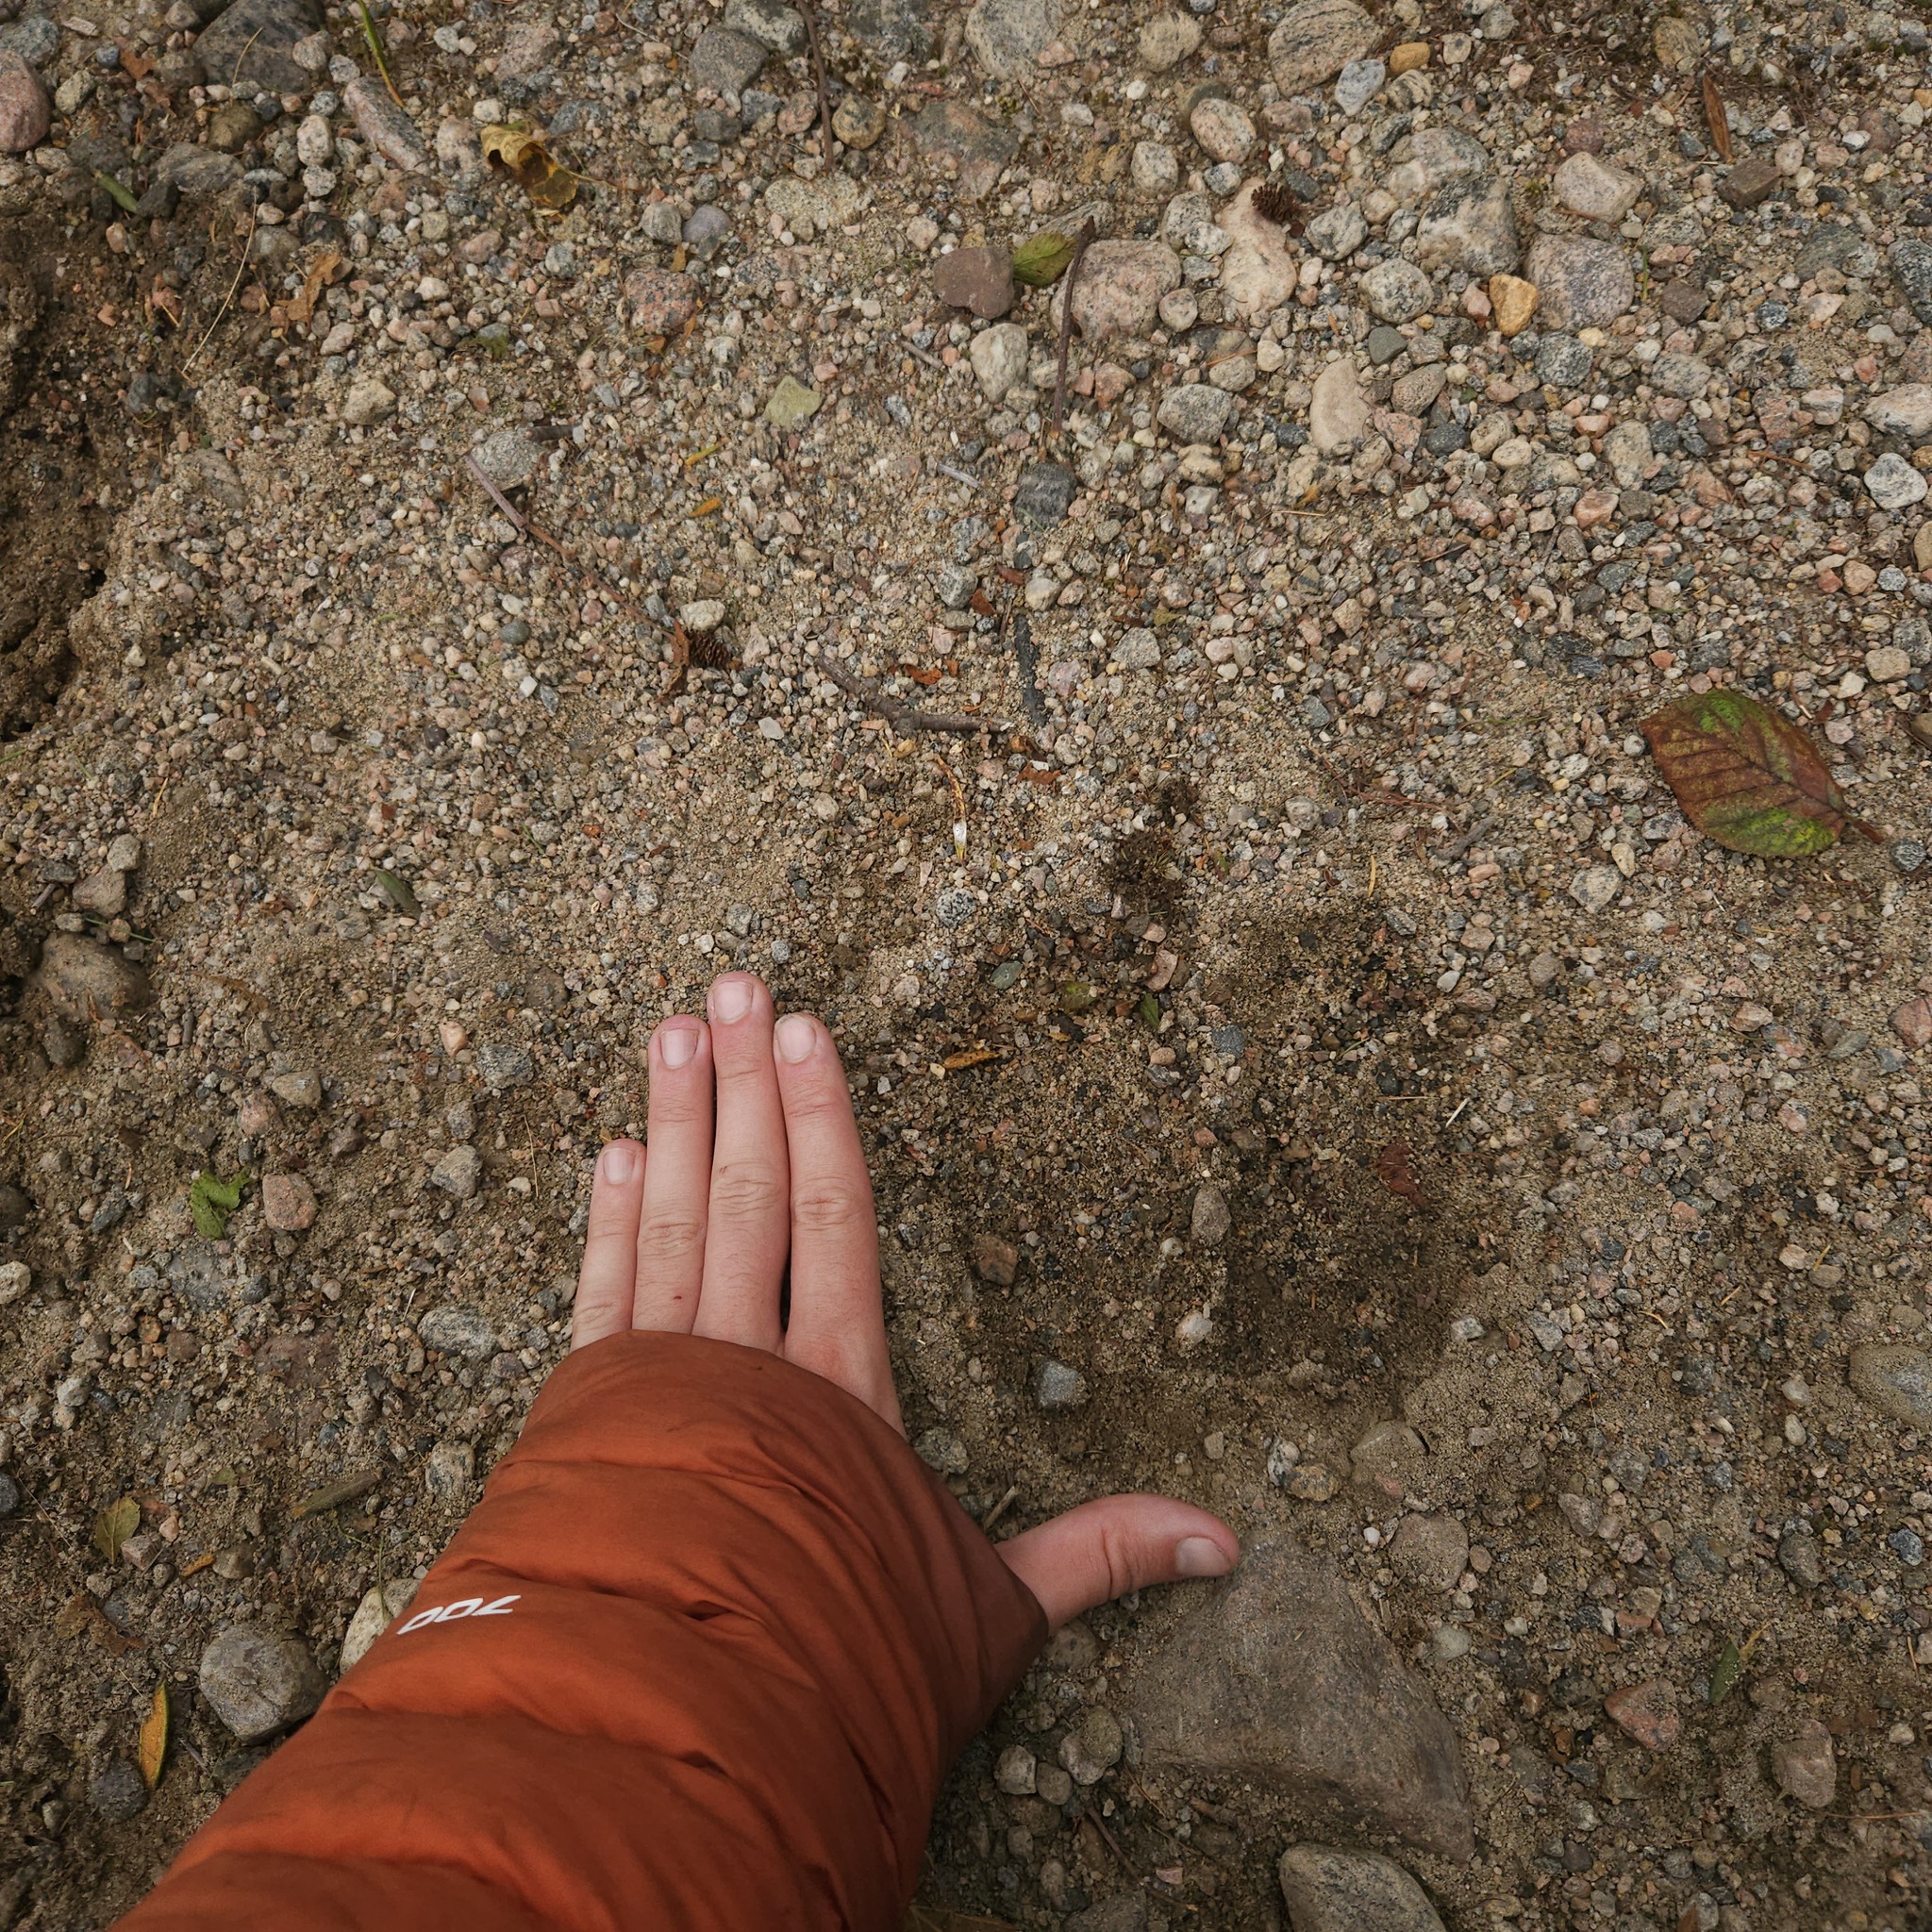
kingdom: Animalia
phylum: Chordata
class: Mammalia
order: Artiodactyla
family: Cervidae
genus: Alces
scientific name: Alces alces
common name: Moose
